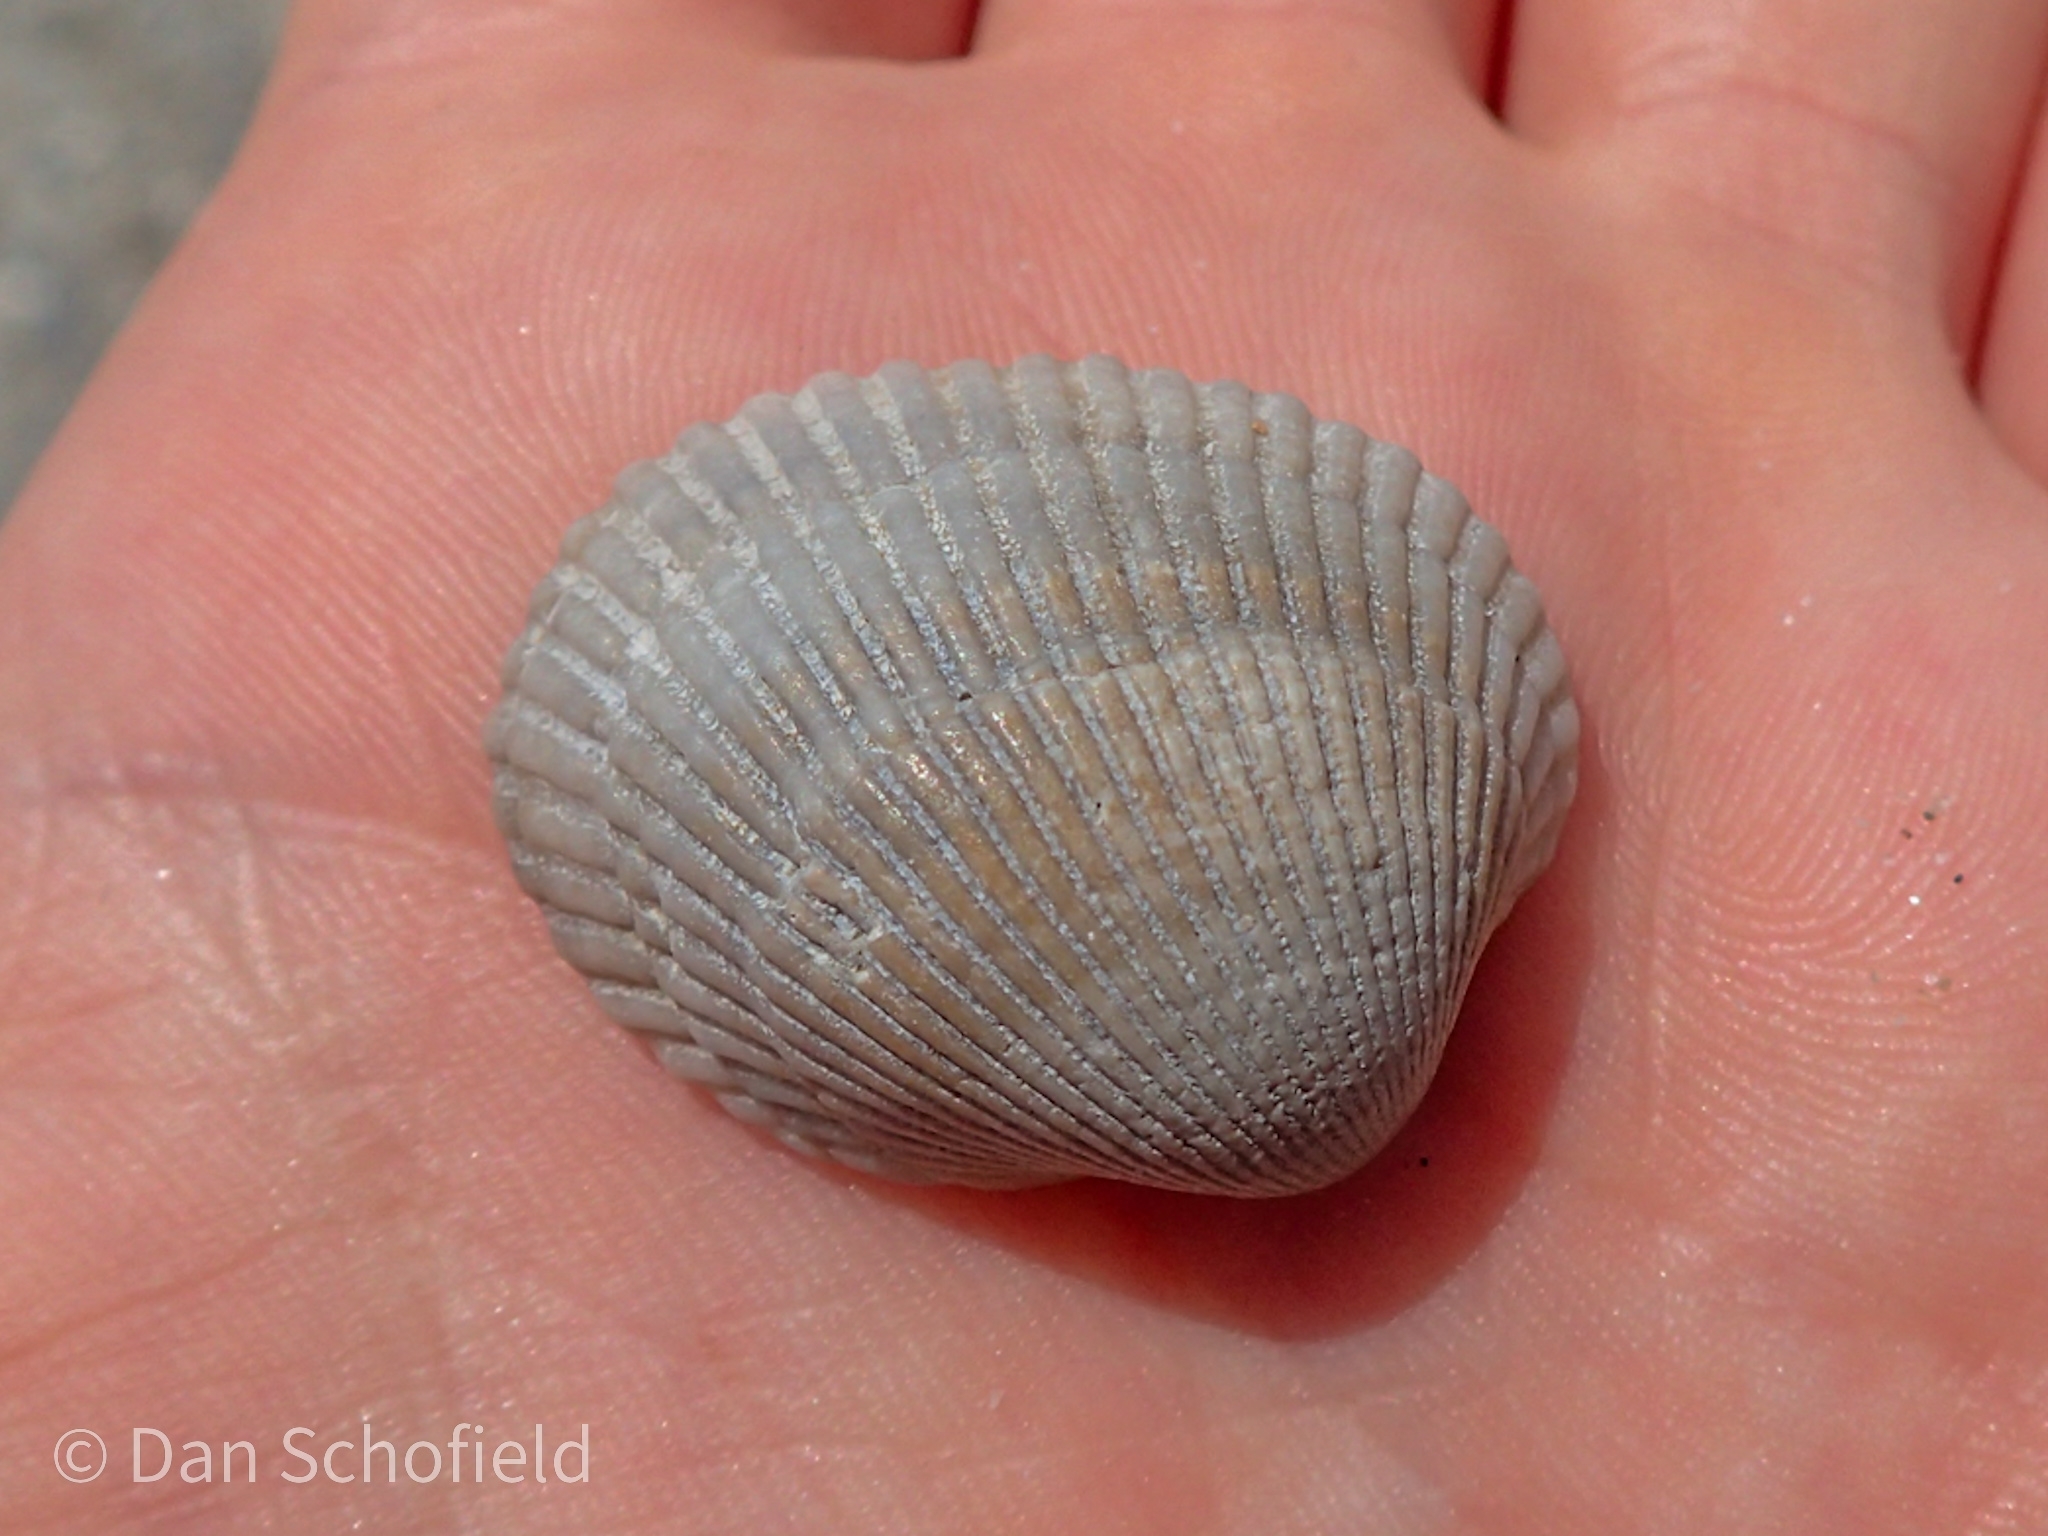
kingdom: Animalia
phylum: Mollusca
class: Bivalvia
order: Arcida
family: Arcidae
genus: Lunarca
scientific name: Lunarca ovalis
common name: Blood ark
